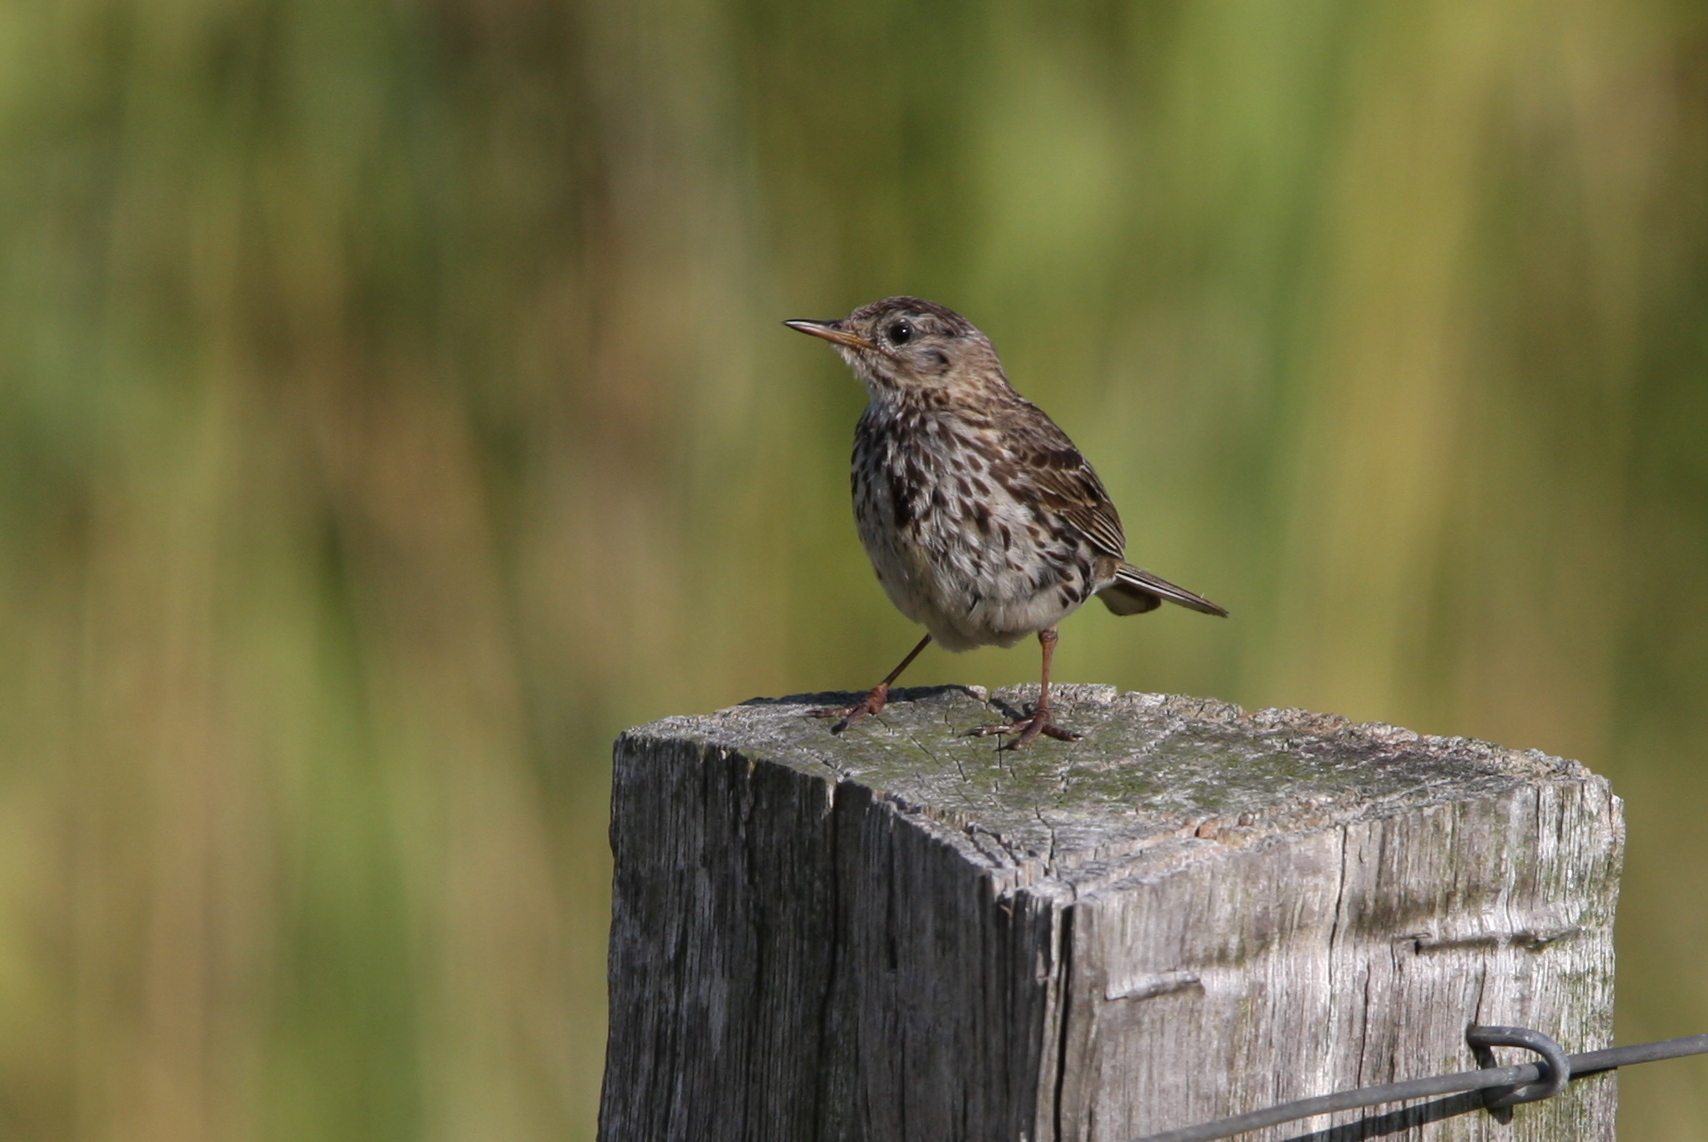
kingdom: Animalia
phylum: Chordata
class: Aves
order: Passeriformes
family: Motacillidae
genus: Anthus
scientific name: Anthus pratensis
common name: Meadow pipit
